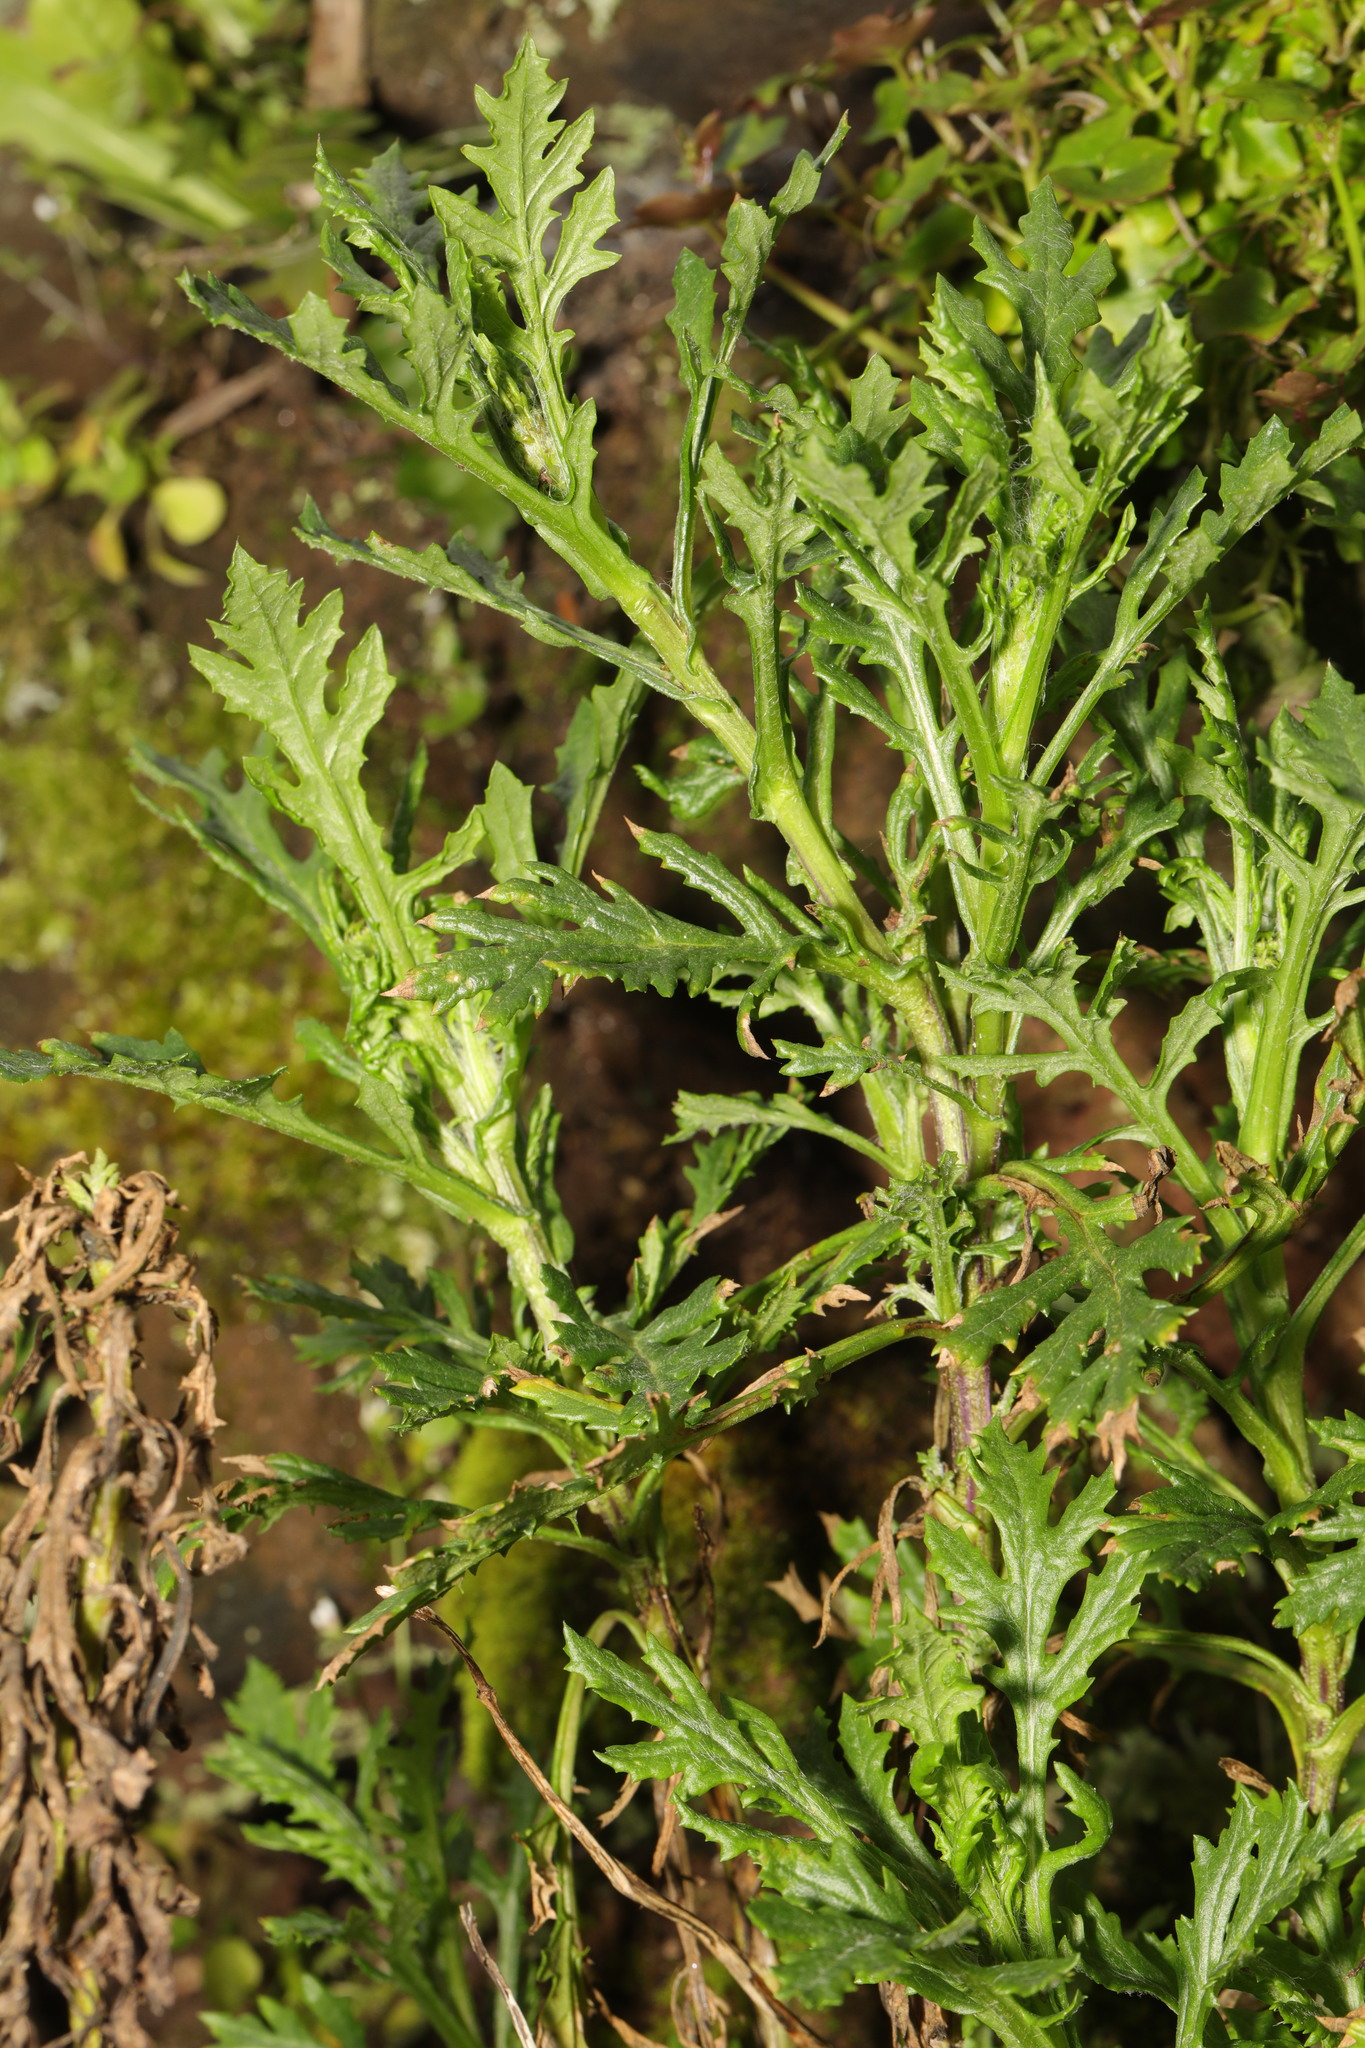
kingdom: Plantae
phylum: Tracheophyta
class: Magnoliopsida
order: Asterales
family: Asteraceae
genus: Senecio
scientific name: Senecio squalidus
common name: Oxford ragwort
